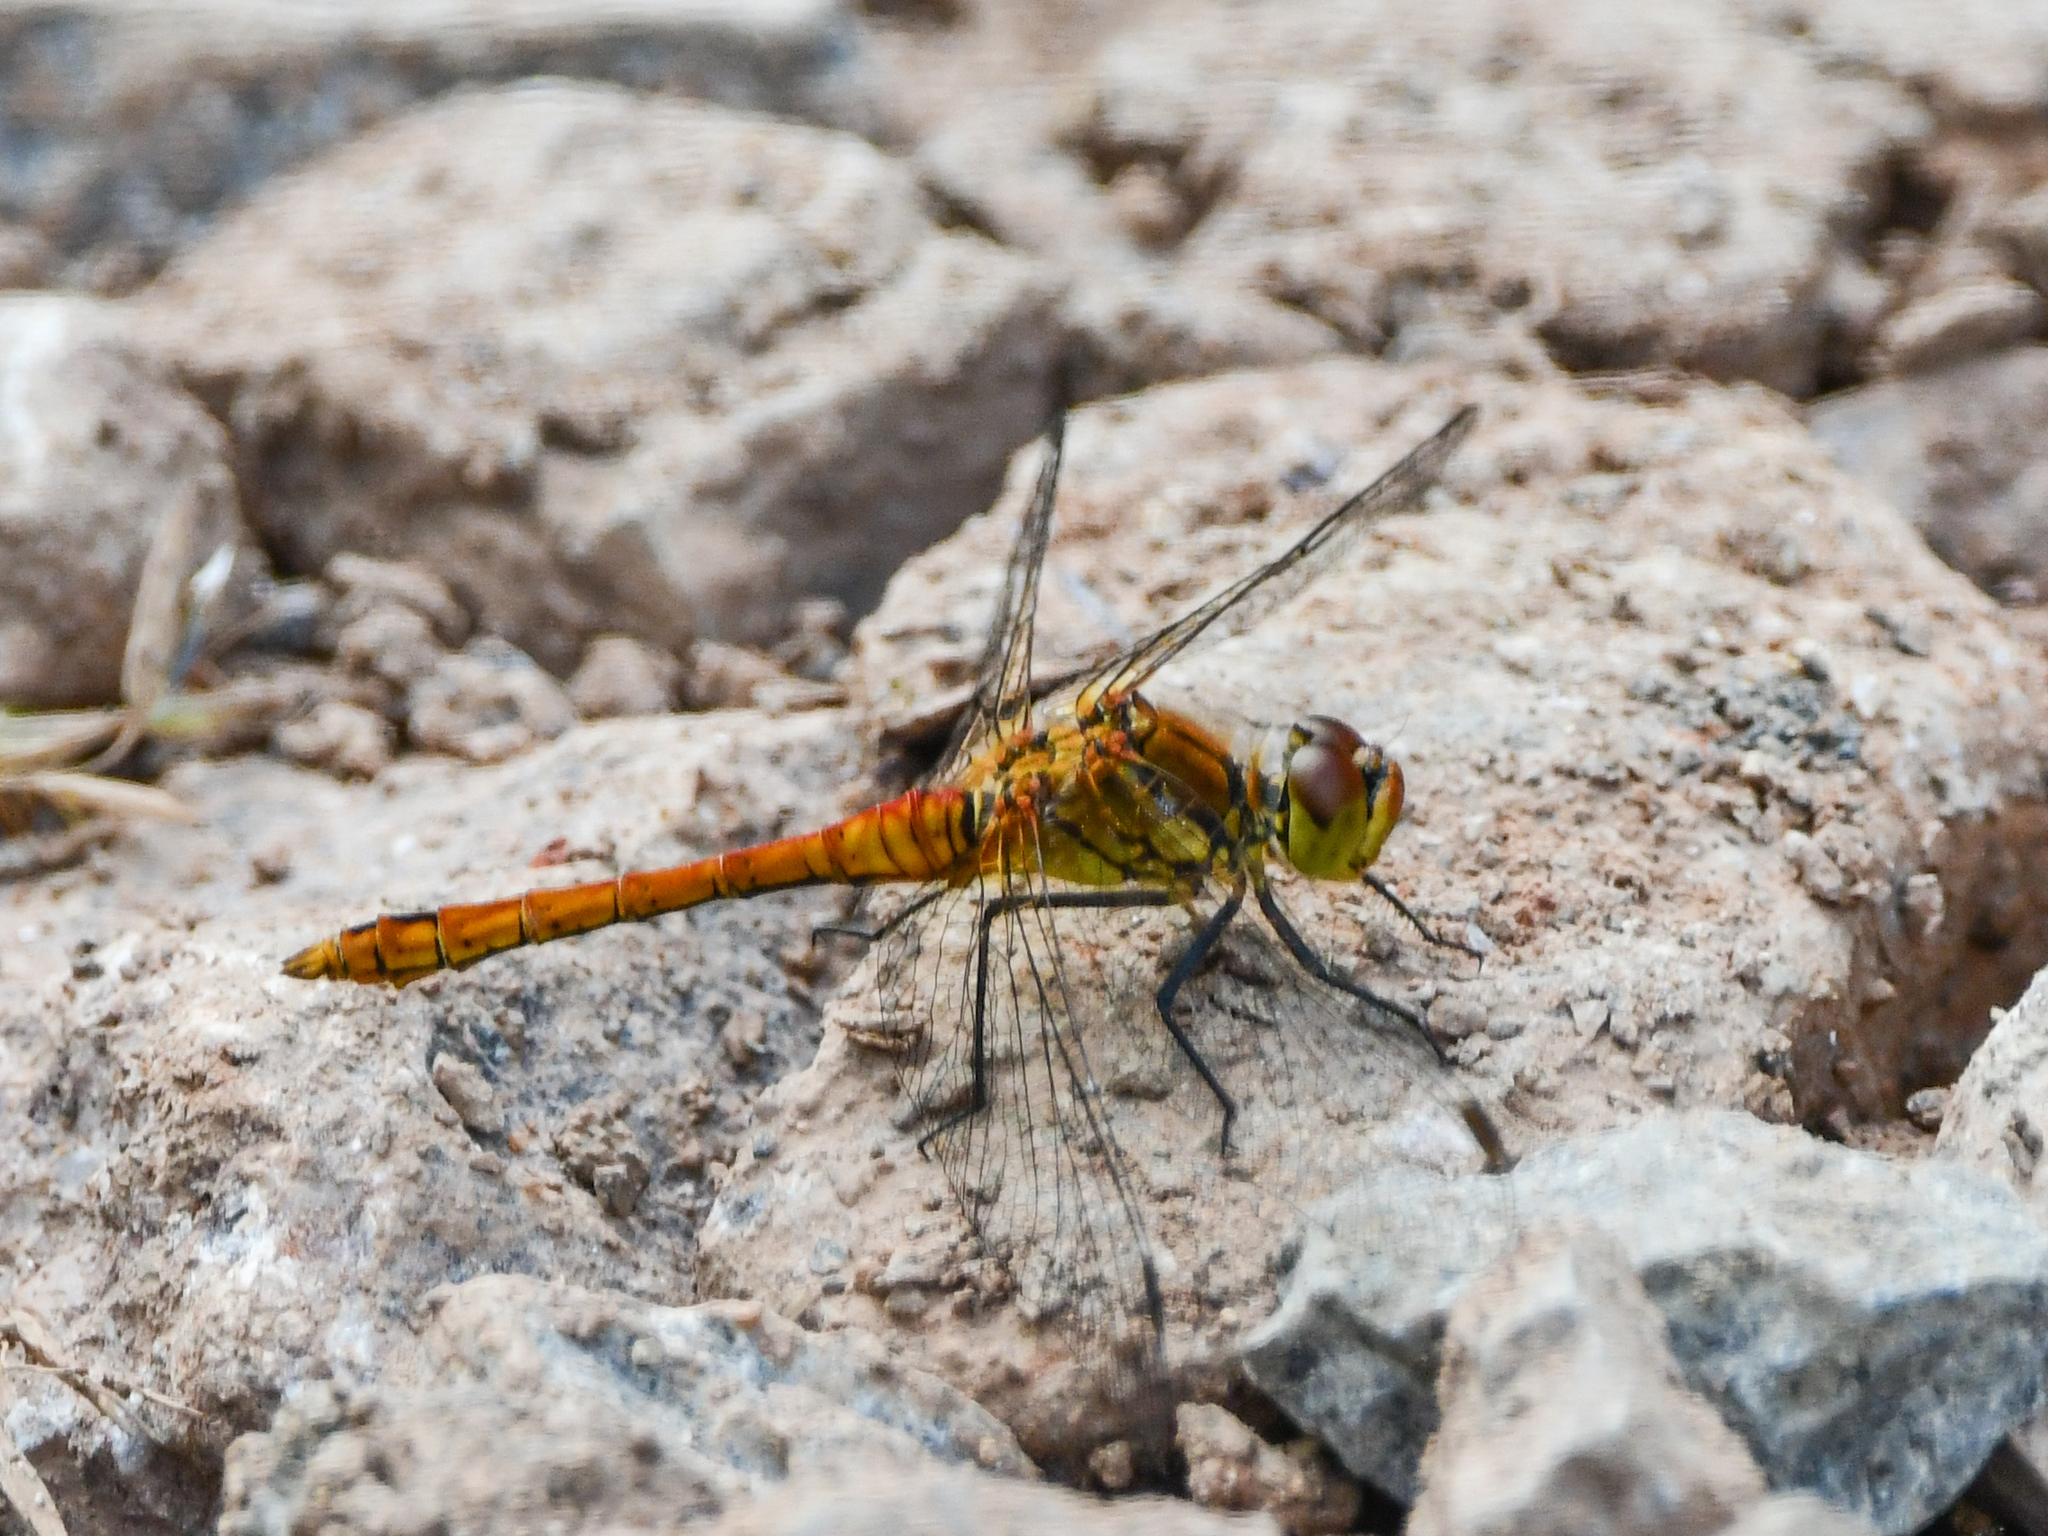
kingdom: Animalia
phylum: Arthropoda
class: Insecta
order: Odonata
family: Libellulidae
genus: Sympetrum
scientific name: Sympetrum sanguineum
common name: Ruddy darter
